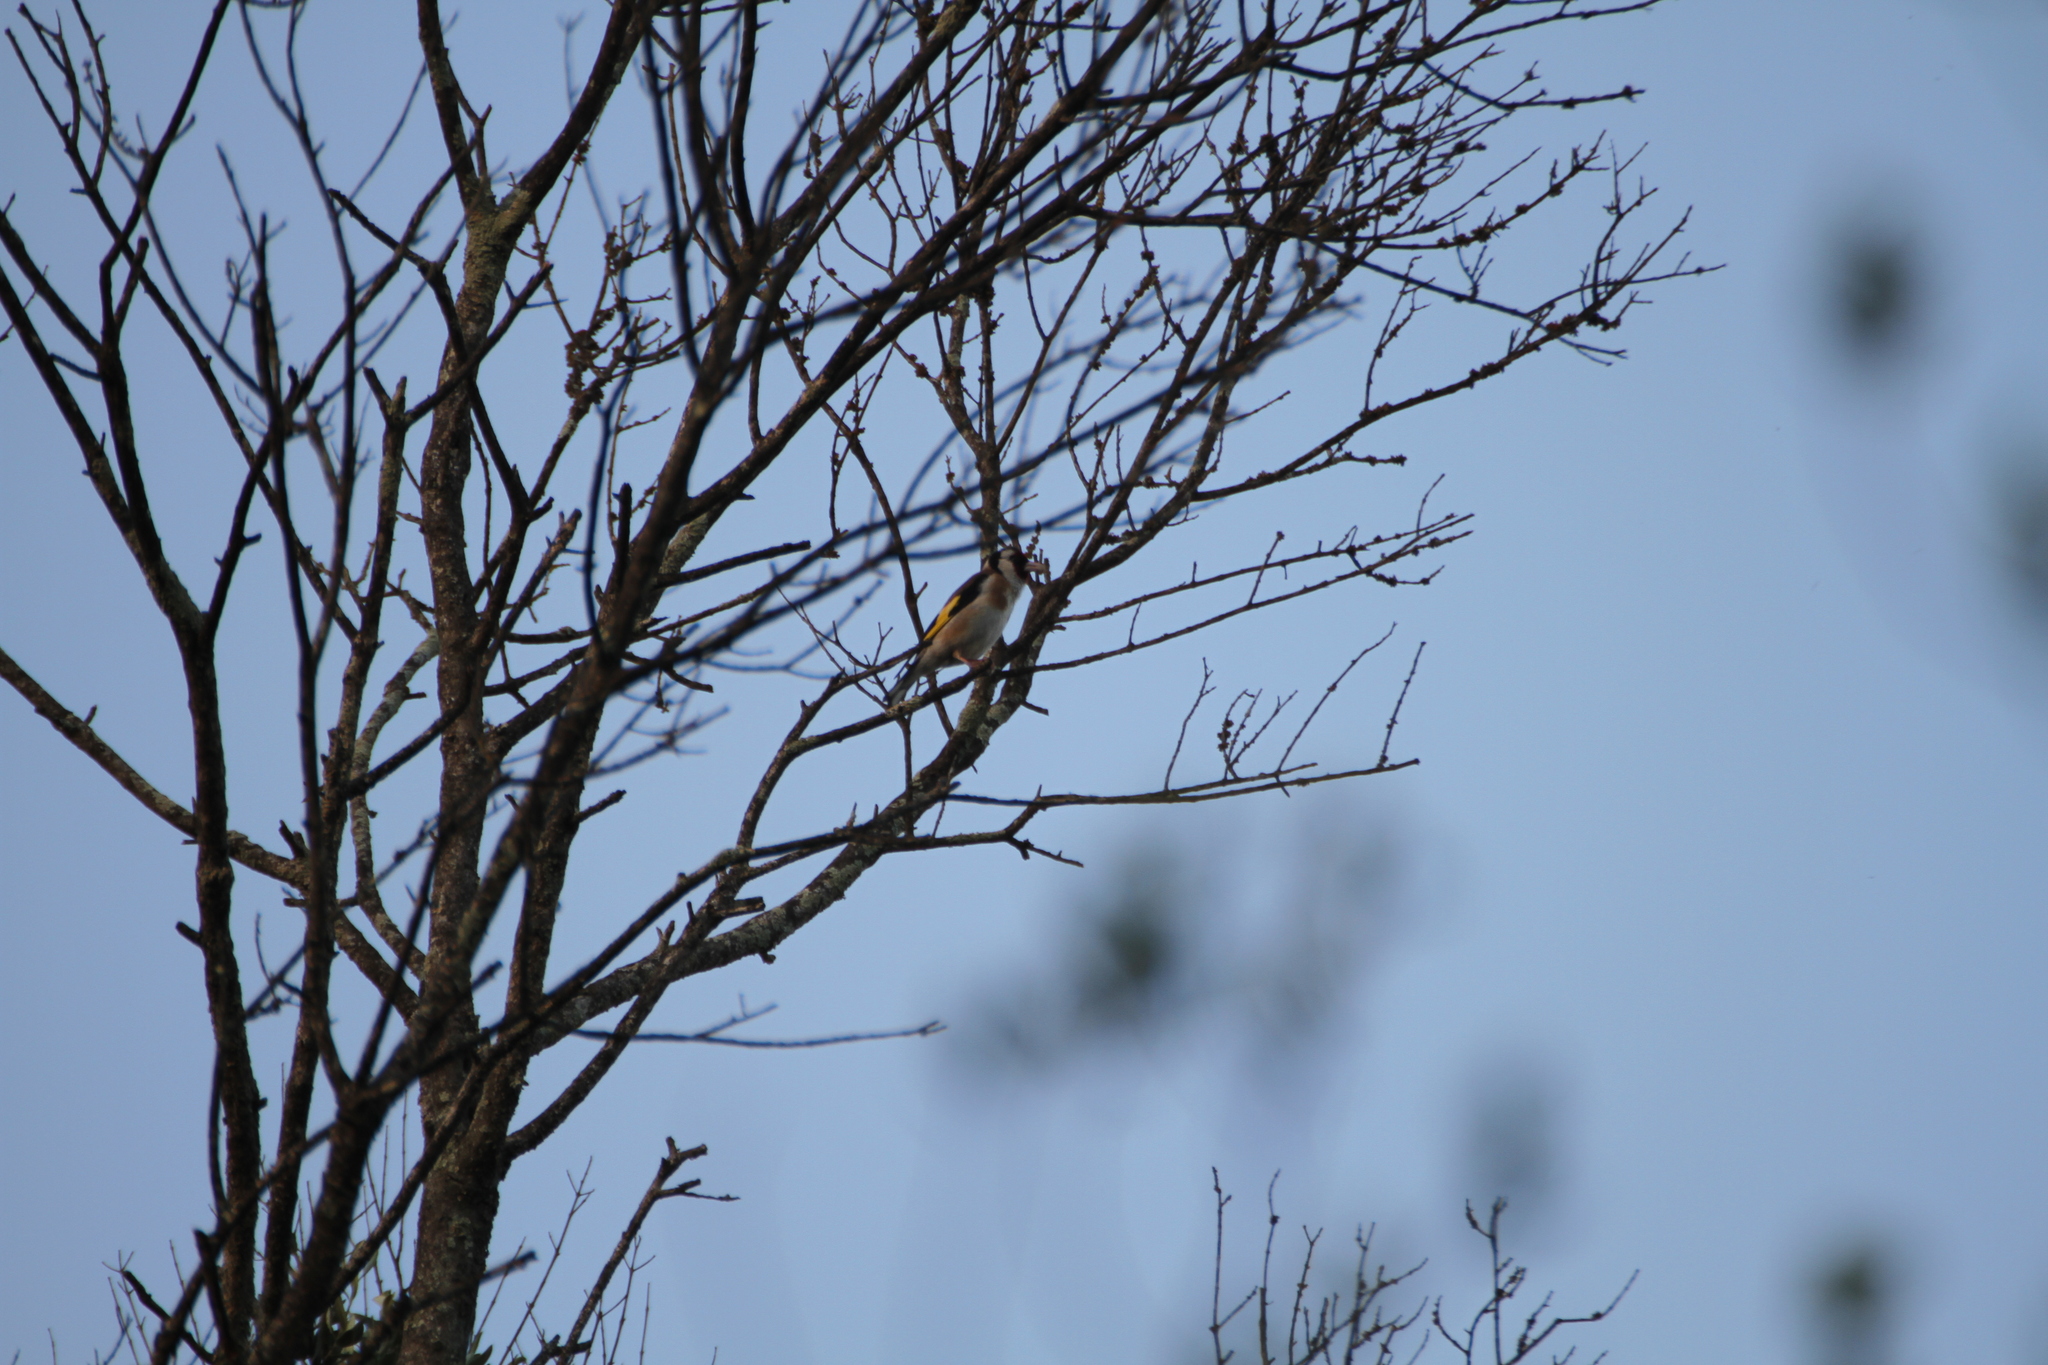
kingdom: Animalia
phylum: Chordata
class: Aves
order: Passeriformes
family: Fringillidae
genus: Carduelis
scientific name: Carduelis carduelis
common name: European goldfinch
